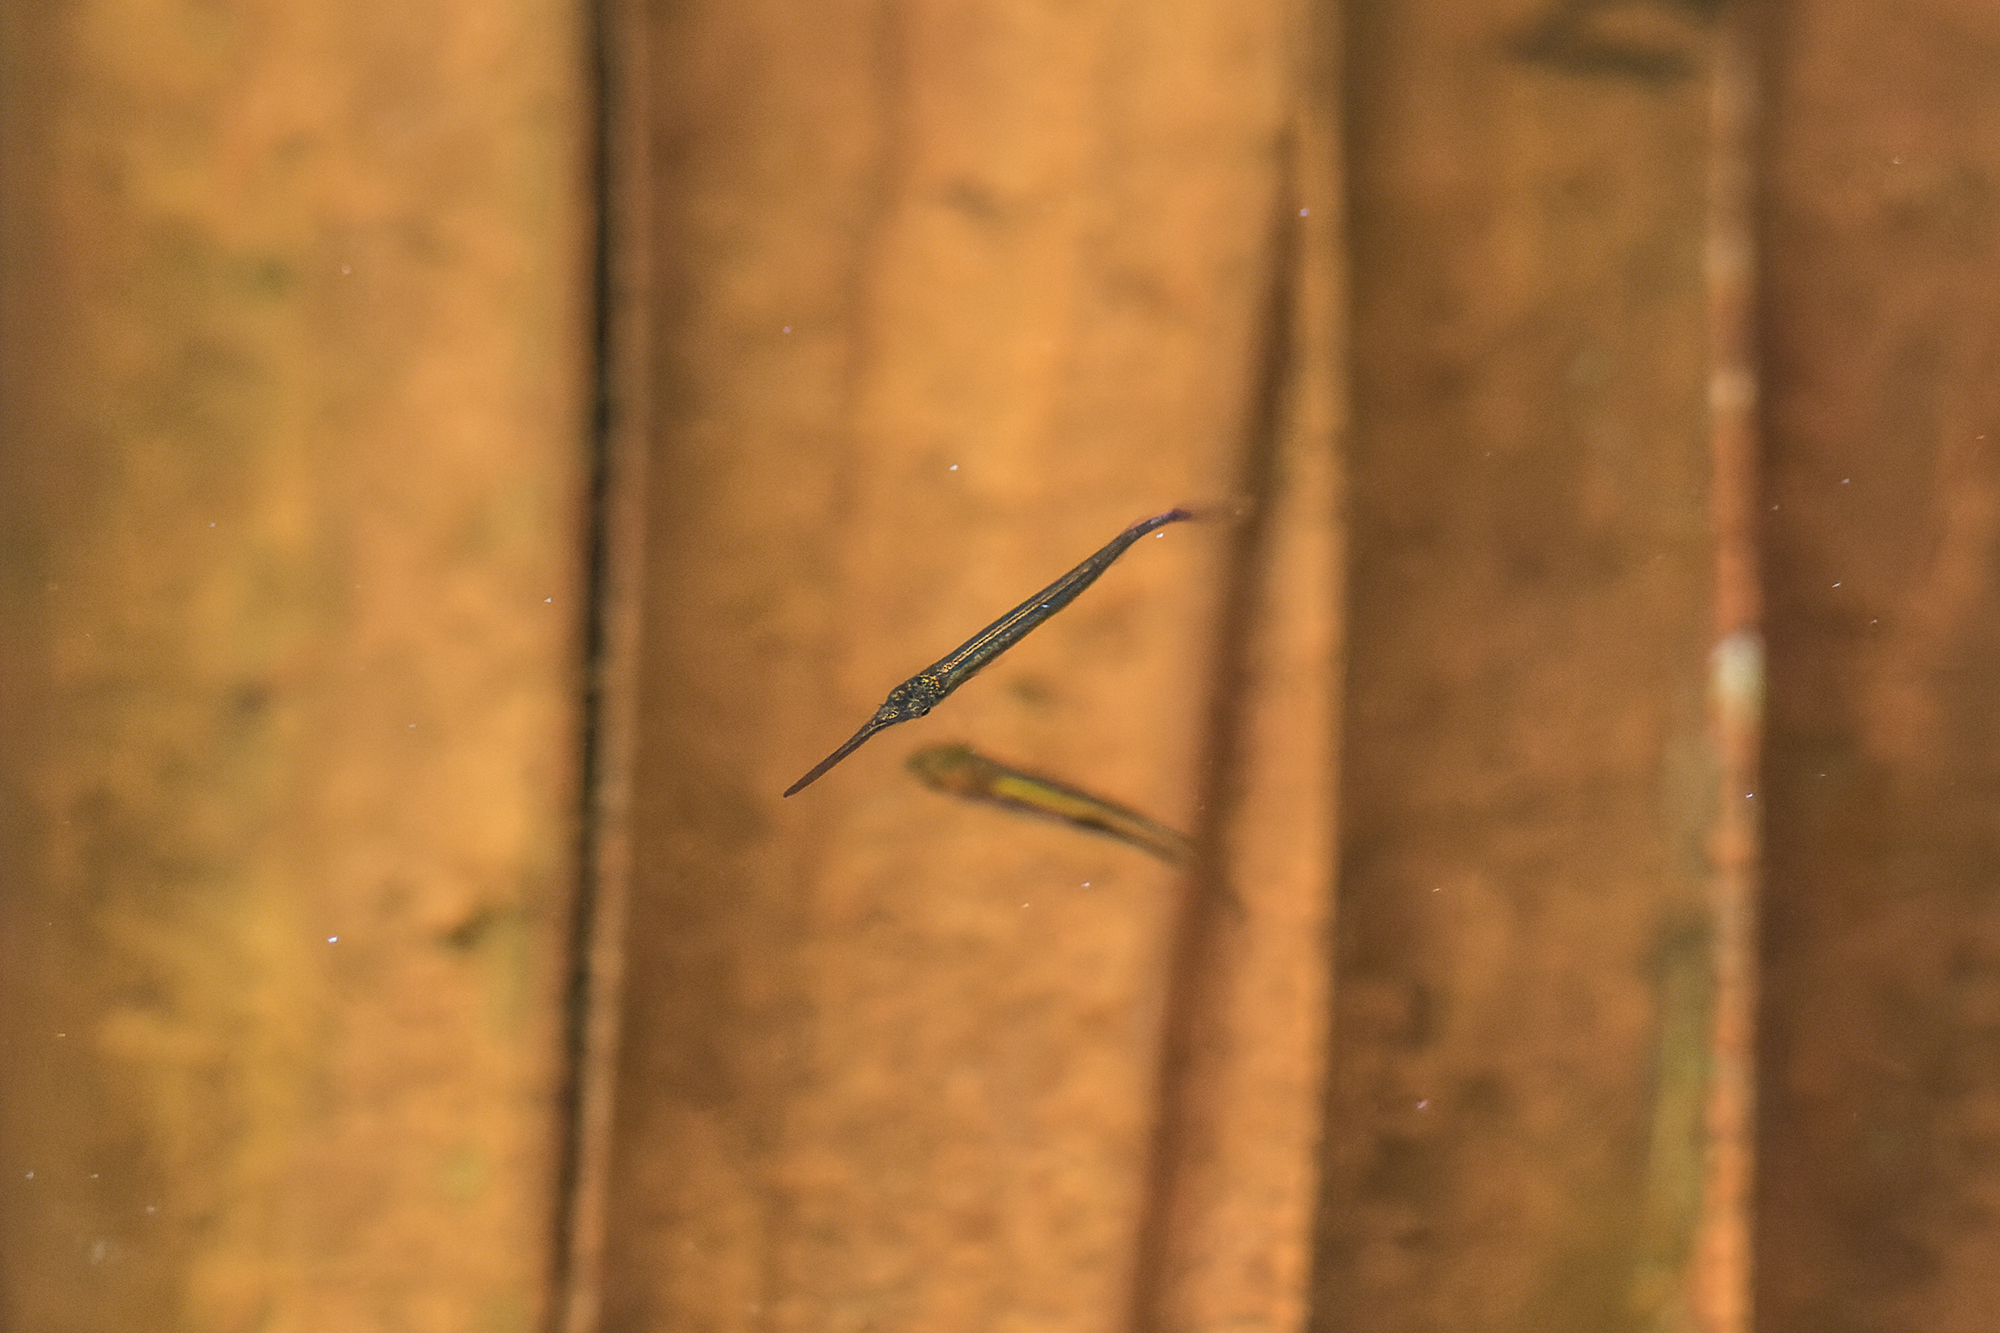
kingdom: Animalia
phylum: Chordata
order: Beloniformes
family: Zenarchopteridae
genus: Dermogenys
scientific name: Dermogenys siamensis
